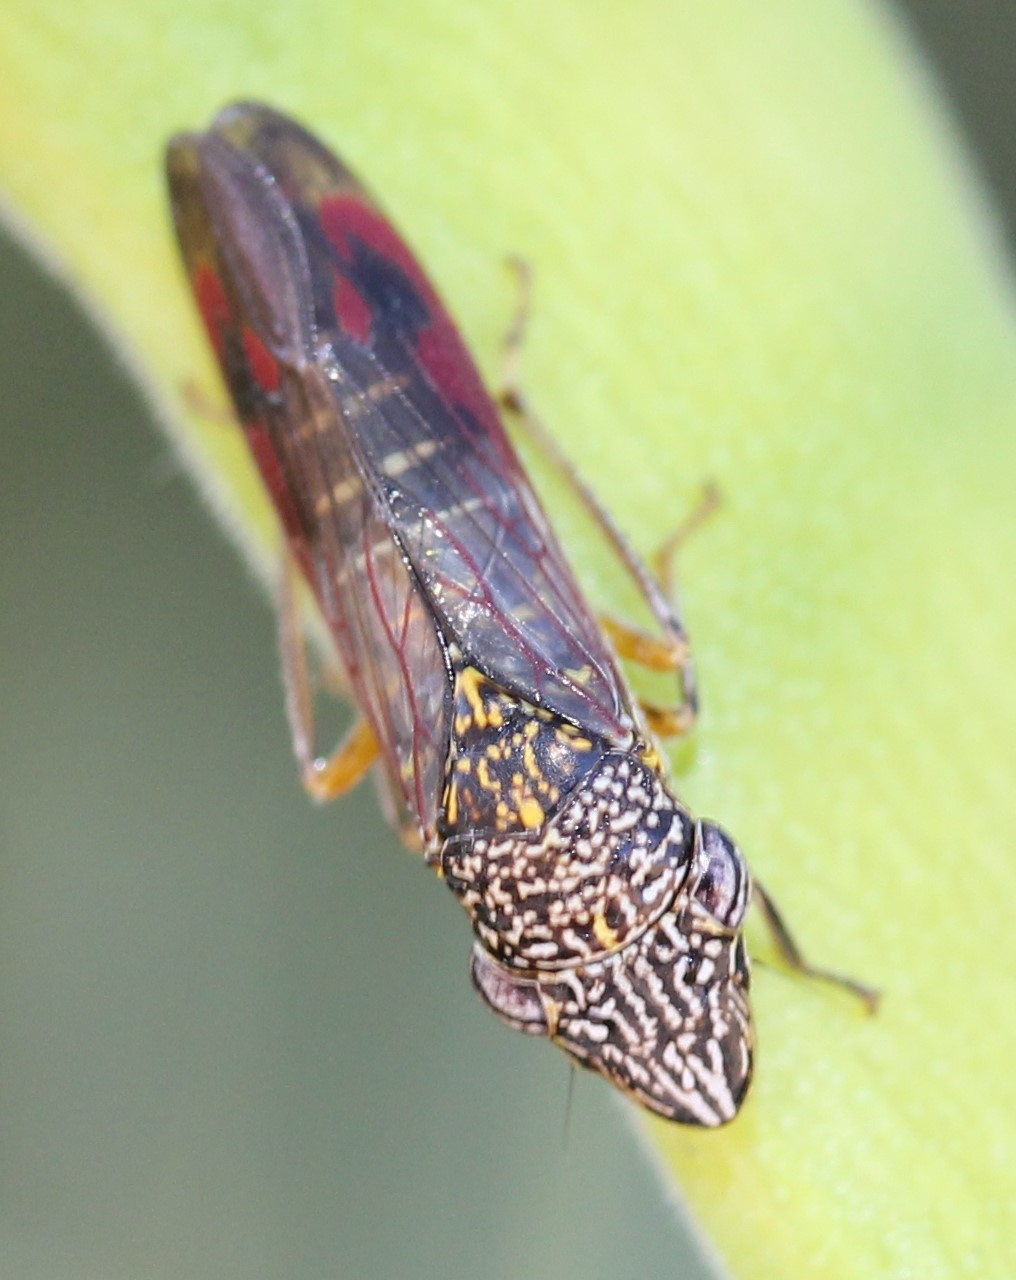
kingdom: Animalia
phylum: Arthropoda
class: Insecta
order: Hemiptera
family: Cicadellidae
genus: Homalodisca
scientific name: Homalodisca liturata
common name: Lacertate sharpshooter
